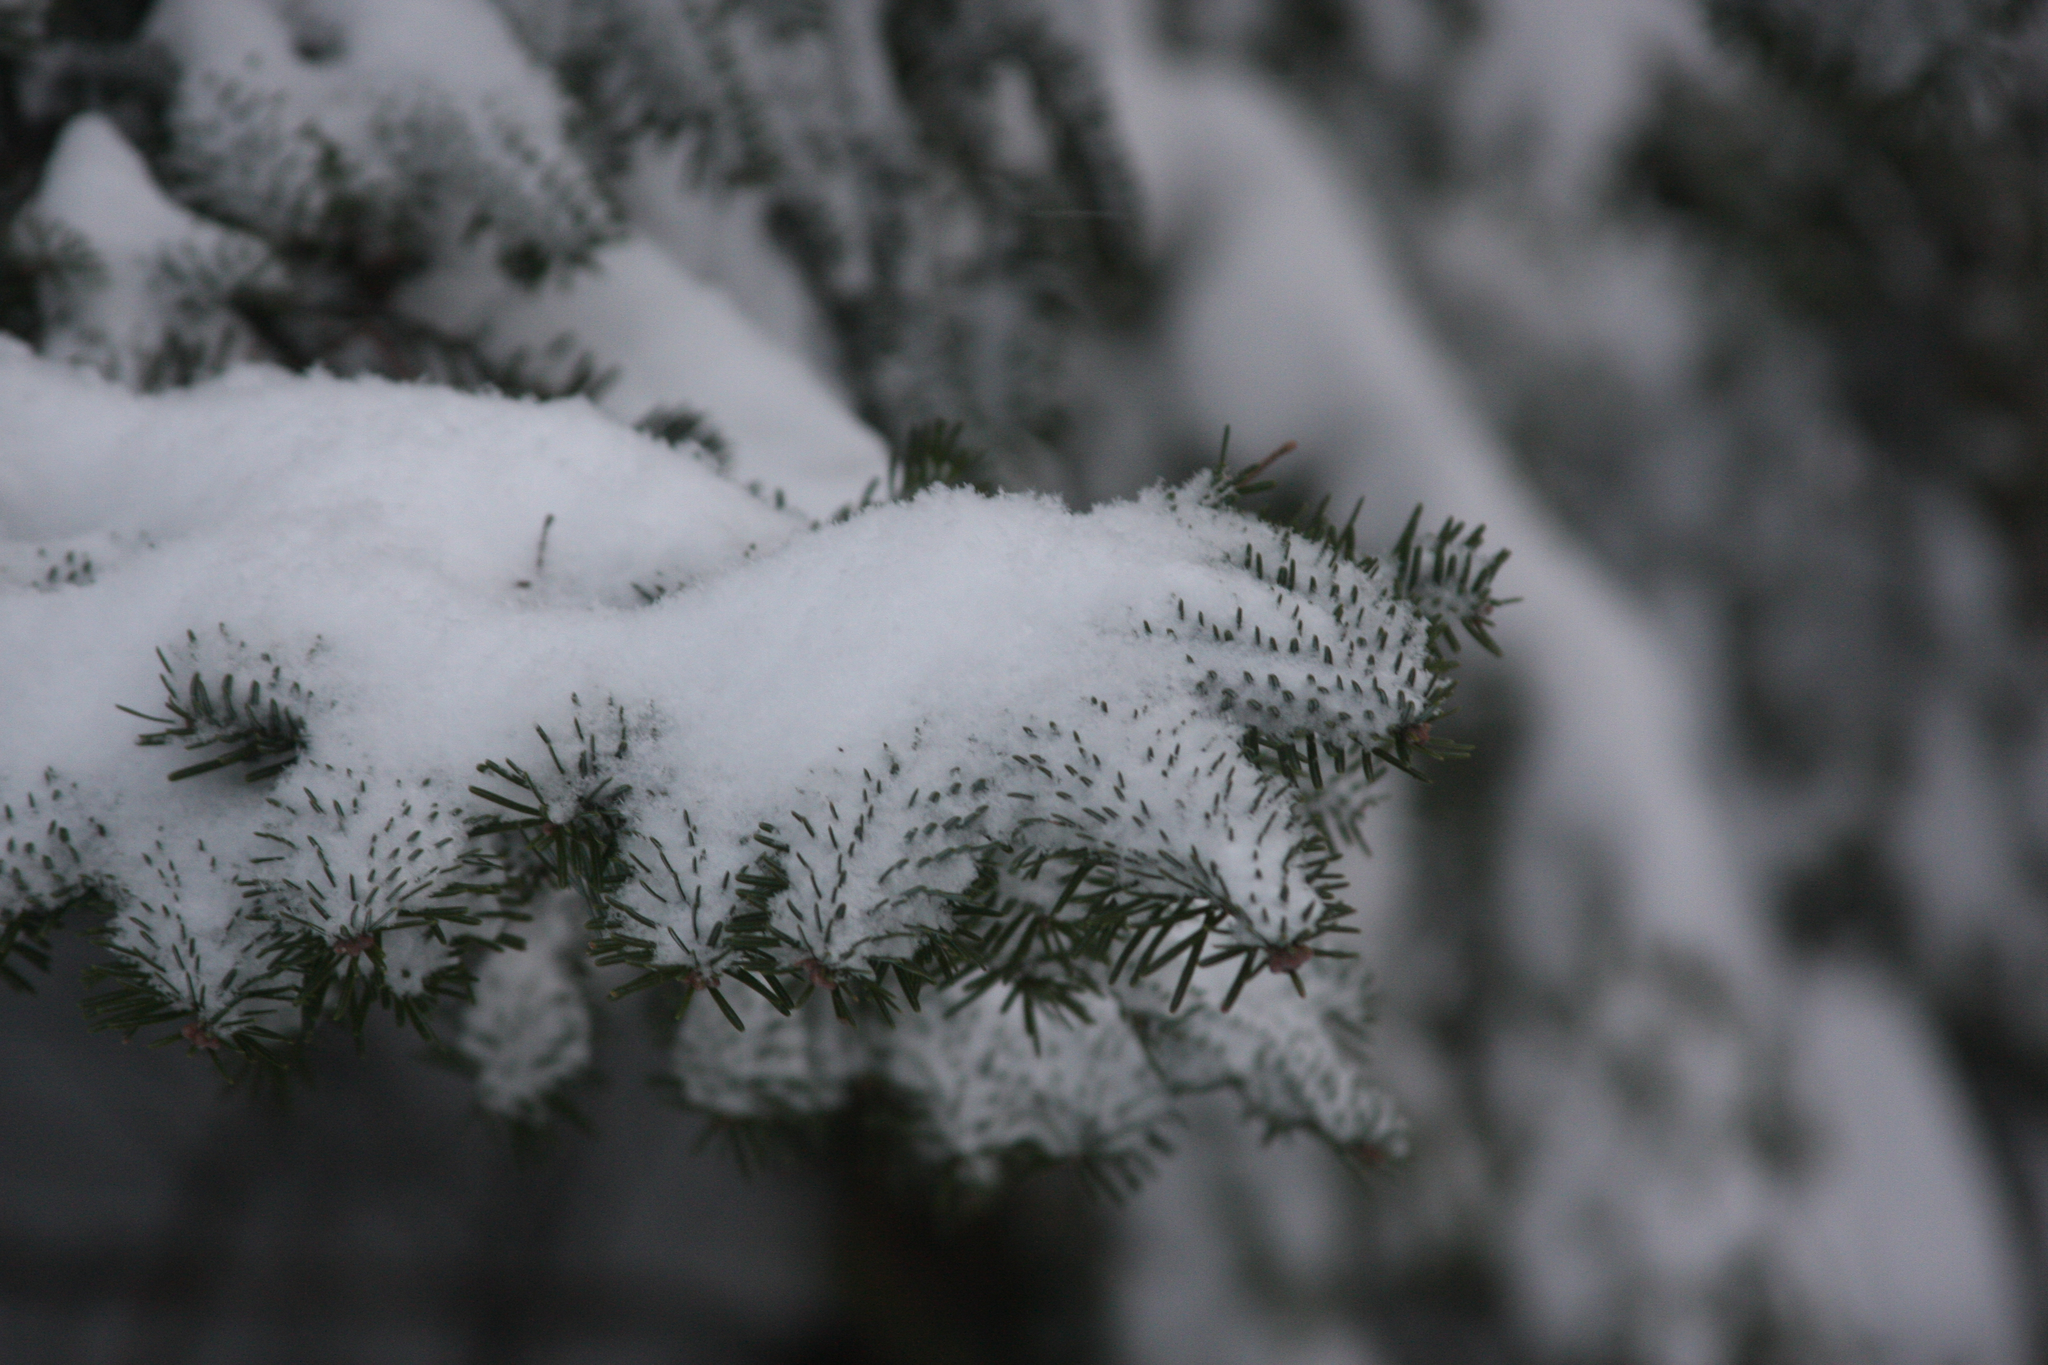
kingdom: Plantae
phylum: Tracheophyta
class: Pinopsida
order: Pinales
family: Pinaceae
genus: Abies
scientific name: Abies balsamea
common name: Balsam fir
